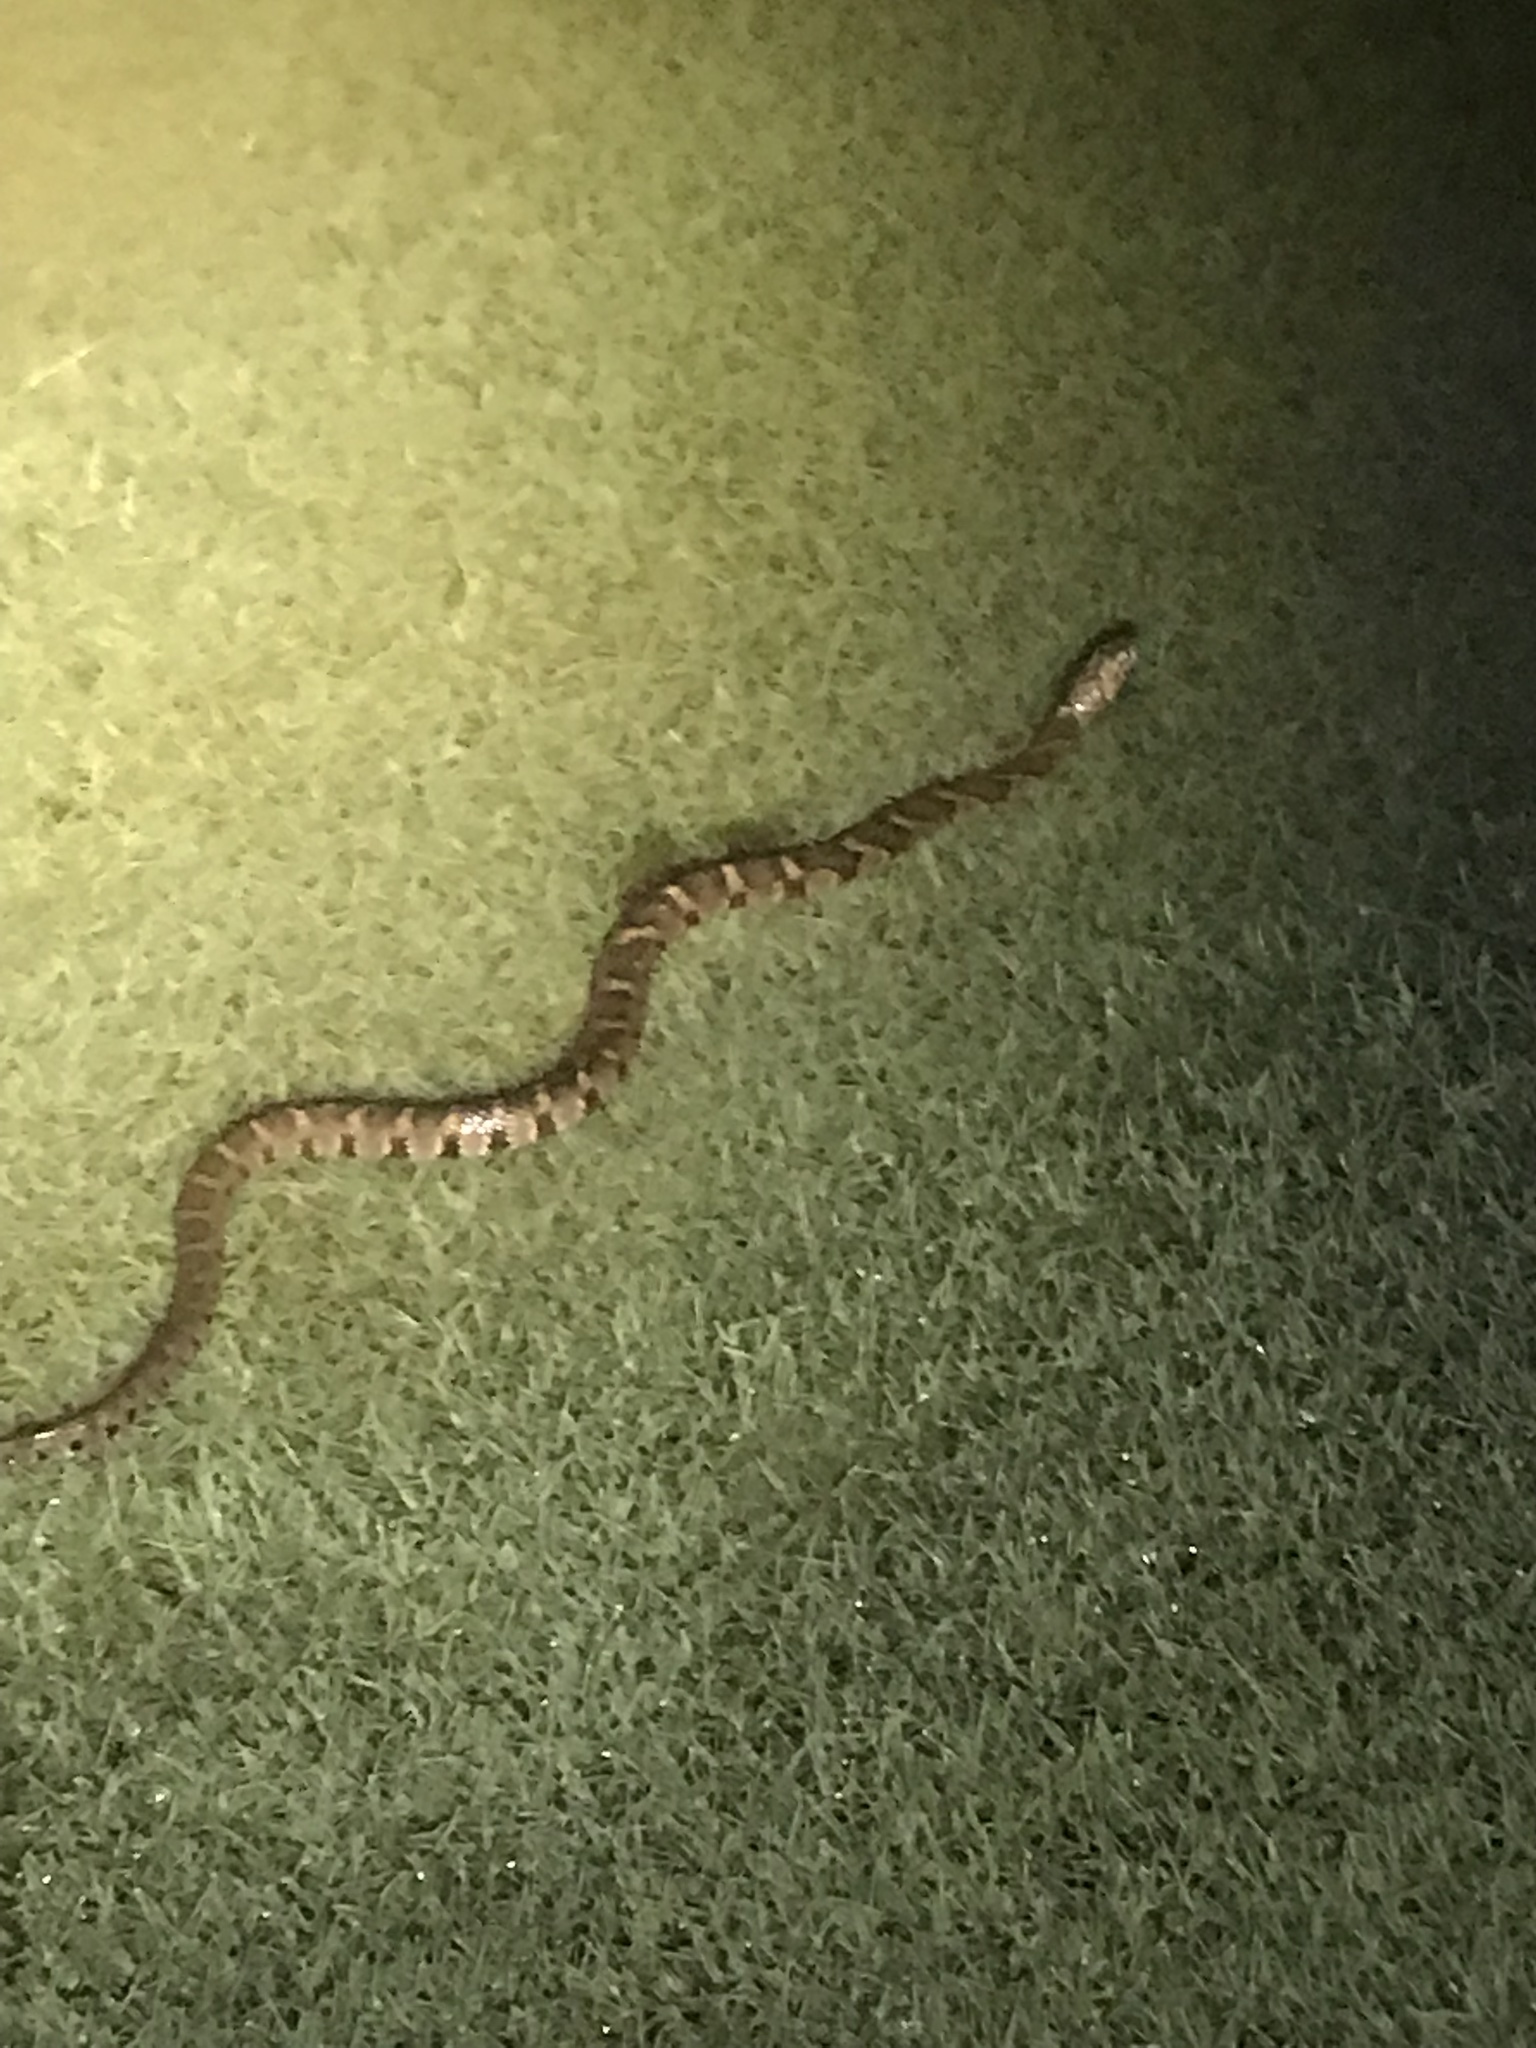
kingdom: Animalia
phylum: Chordata
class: Squamata
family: Colubridae
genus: Nerodia
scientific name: Nerodia sipedon
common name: Northern water snake
